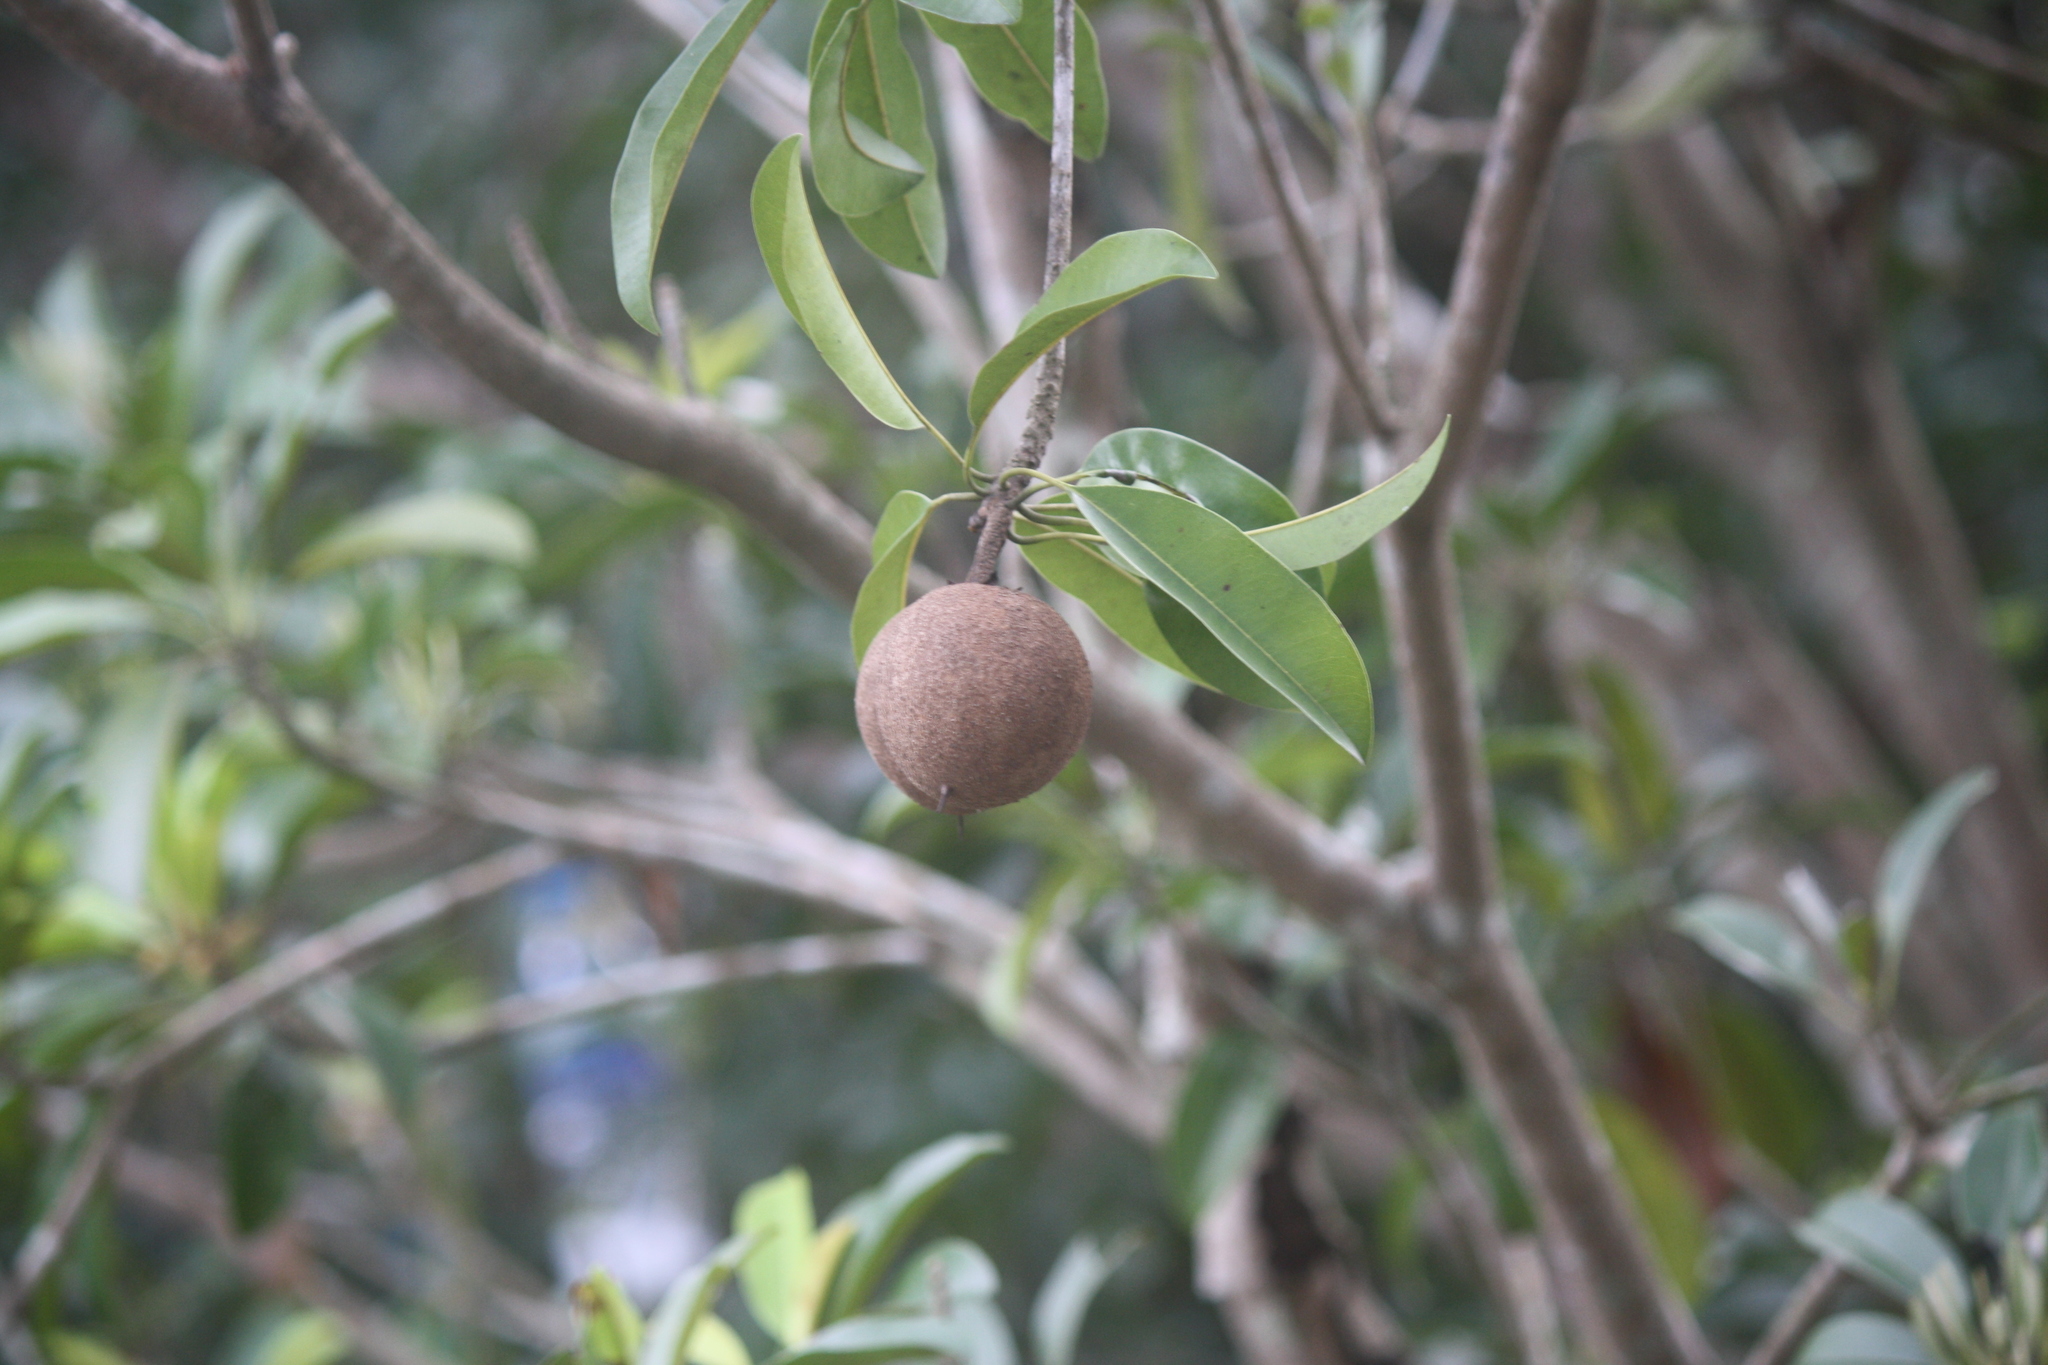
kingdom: Plantae
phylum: Tracheophyta
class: Magnoliopsida
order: Ericales
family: Sapotaceae
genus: Manilkara
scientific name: Manilkara zapota
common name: Sapodilla
